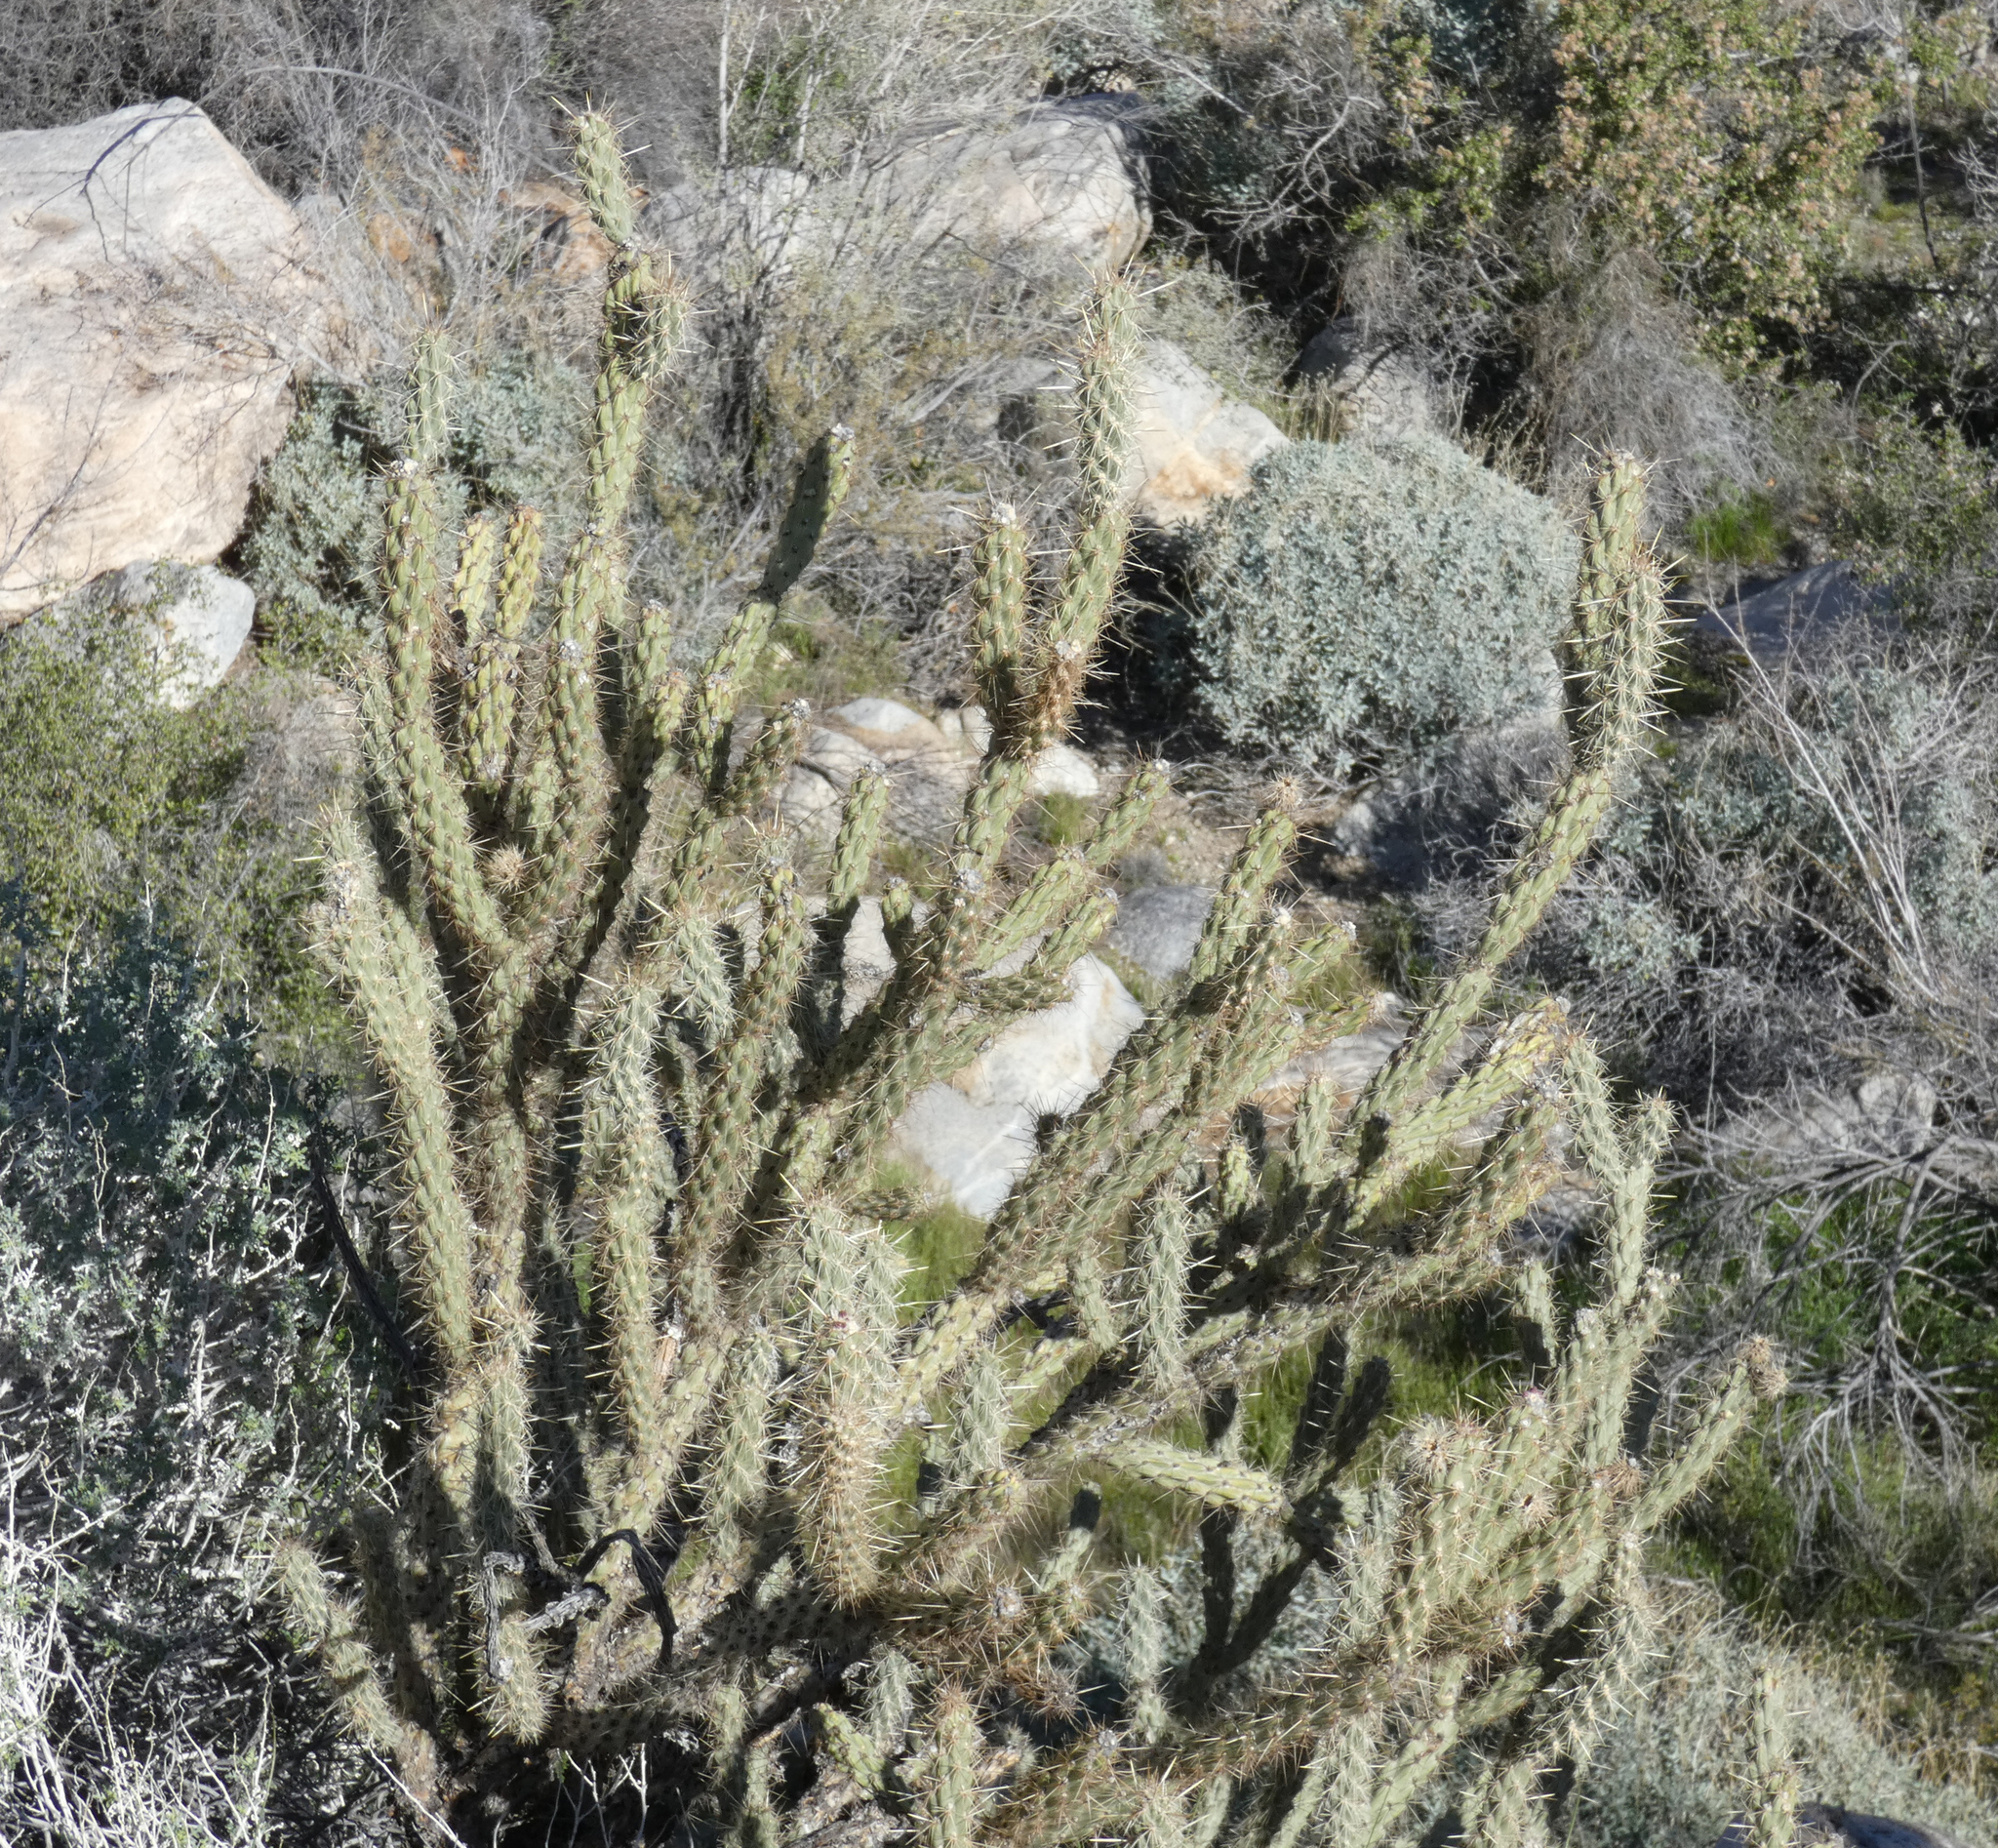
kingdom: Plantae
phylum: Tracheophyta
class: Magnoliopsida
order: Caryophyllales
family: Cactaceae
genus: Cylindropuntia
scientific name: Cylindropuntia ganderi
